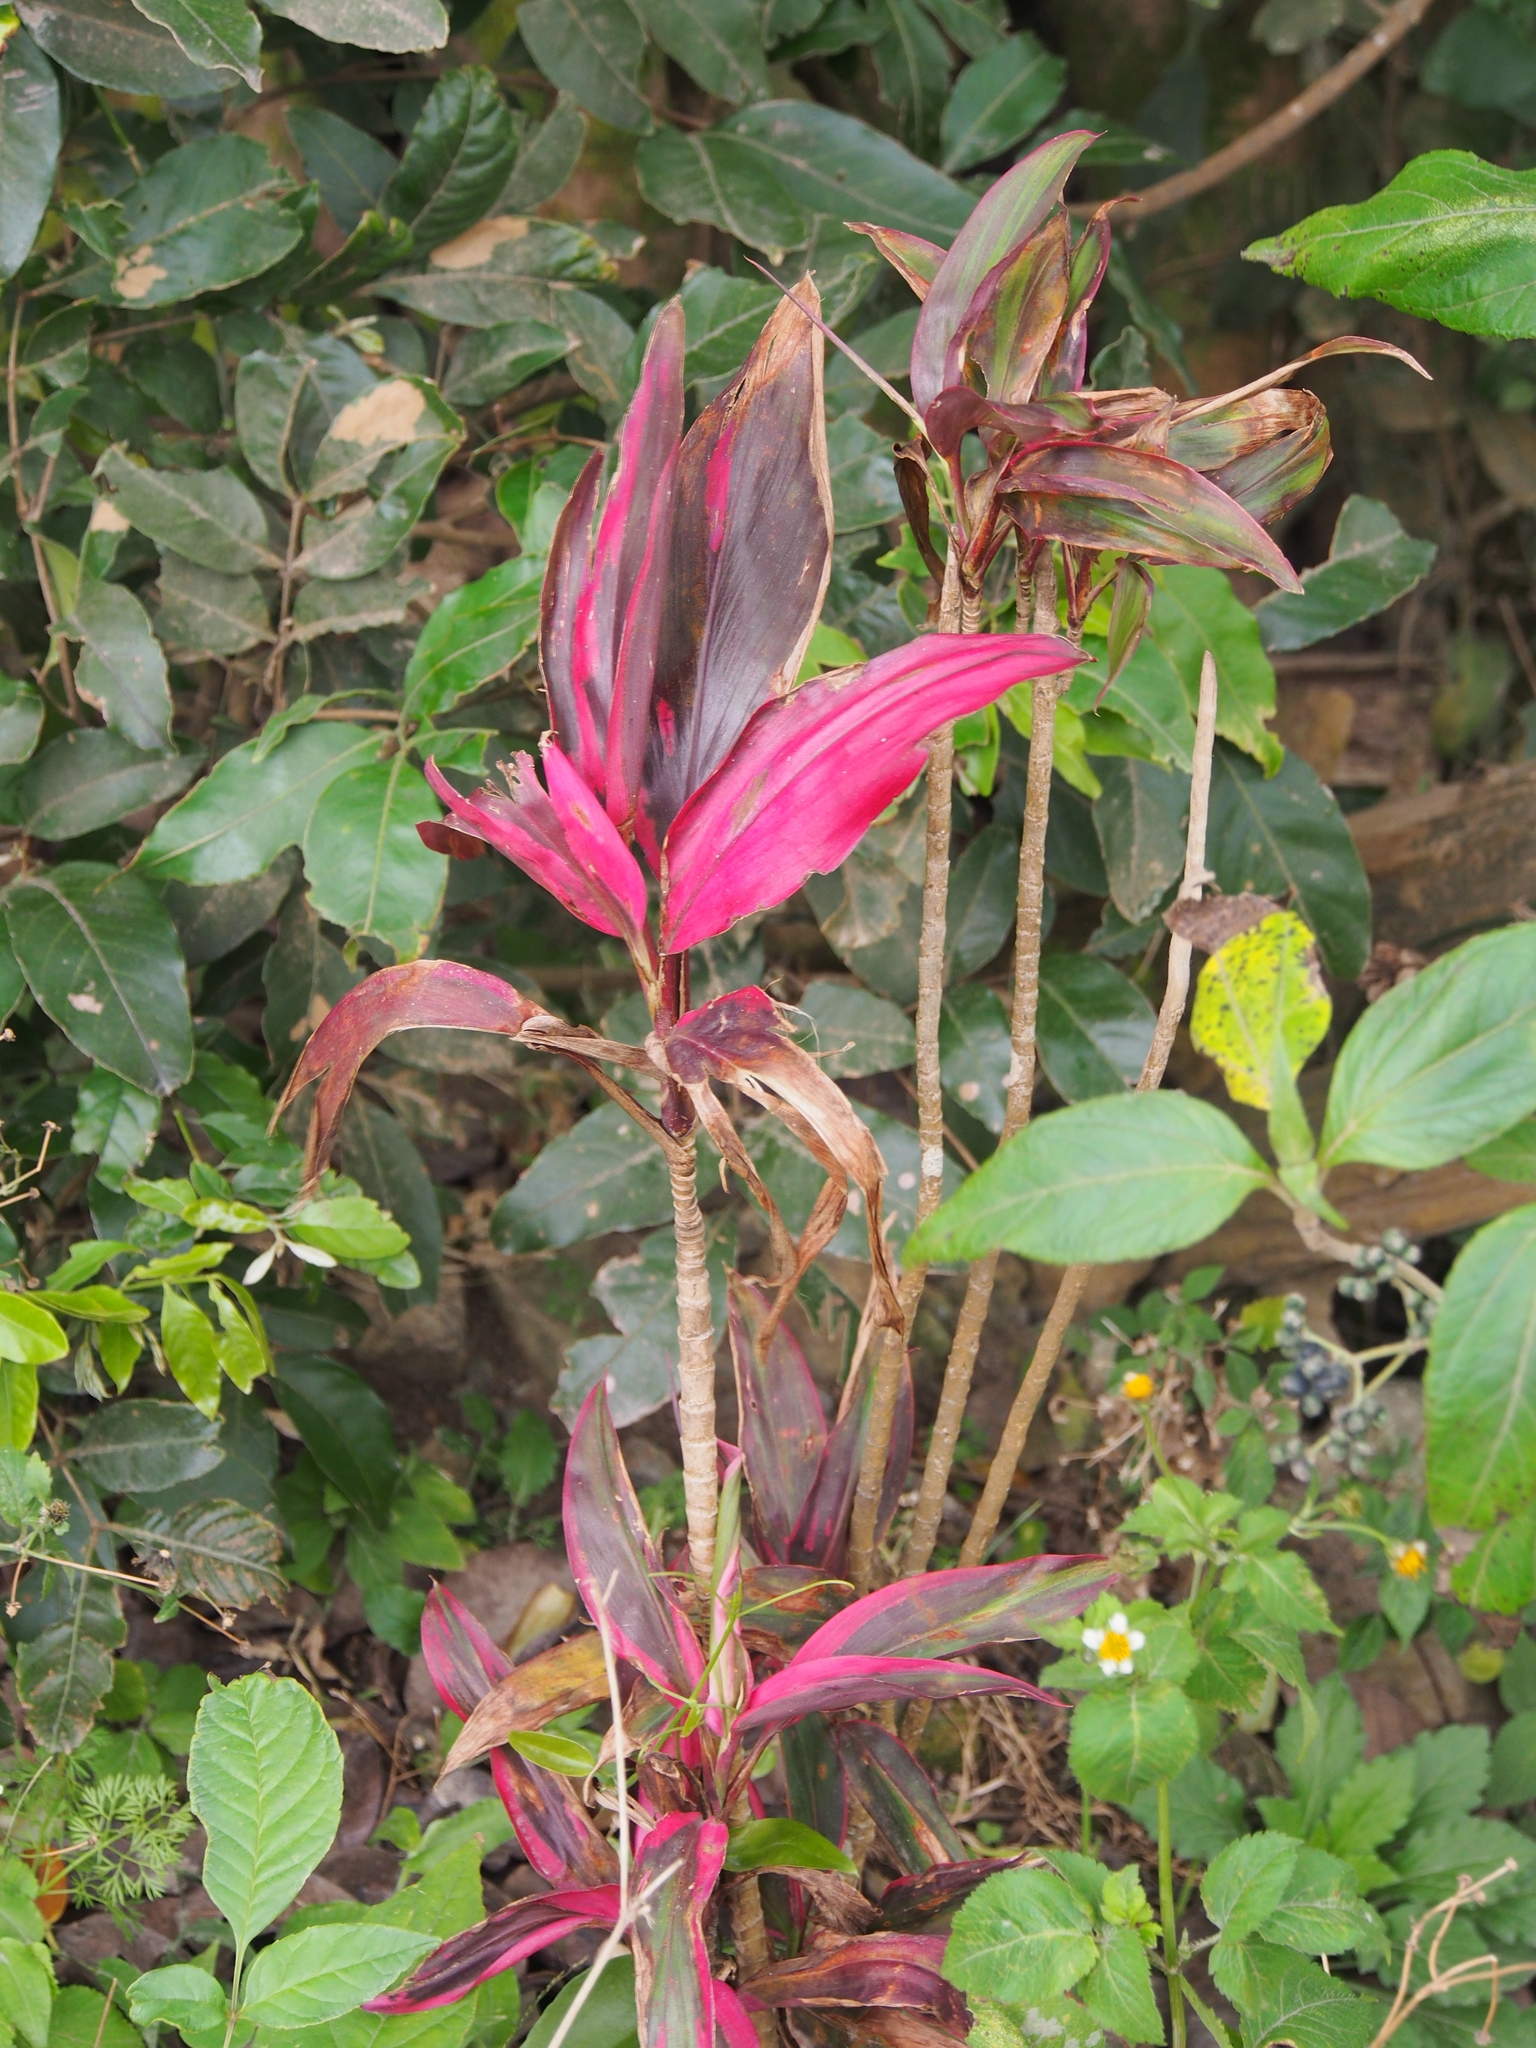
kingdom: Plantae
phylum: Tracheophyta
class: Liliopsida
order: Asparagales
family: Asparagaceae
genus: Cordyline
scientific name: Cordyline fruticosa
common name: Good-luck-plant
